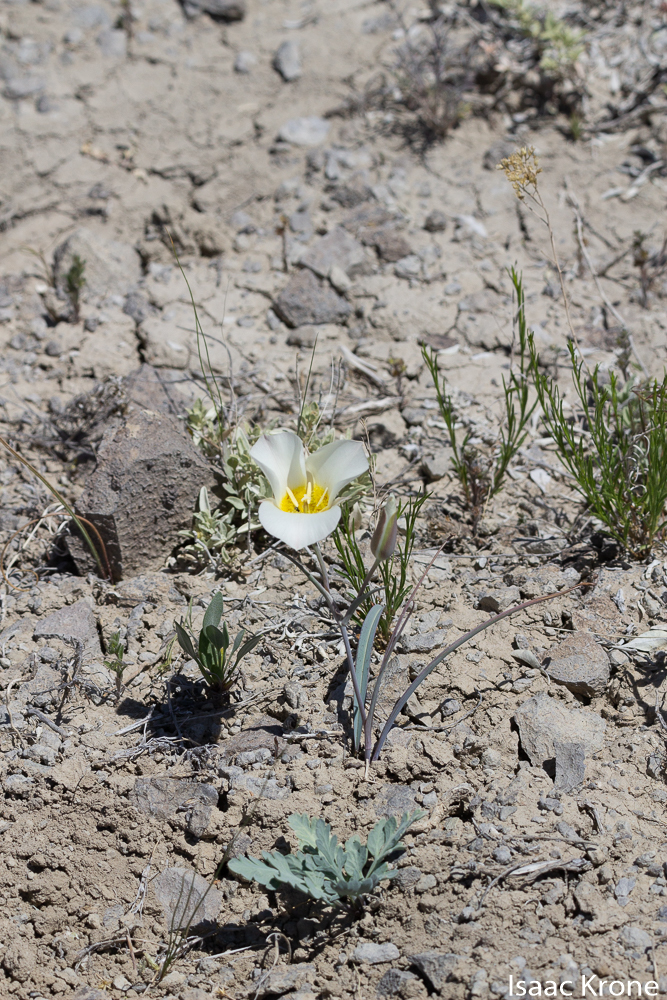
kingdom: Plantae
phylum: Tracheophyta
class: Liliopsida
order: Liliales
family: Liliaceae
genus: Calochortus
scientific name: Calochortus nuttallii
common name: Sego-lily
